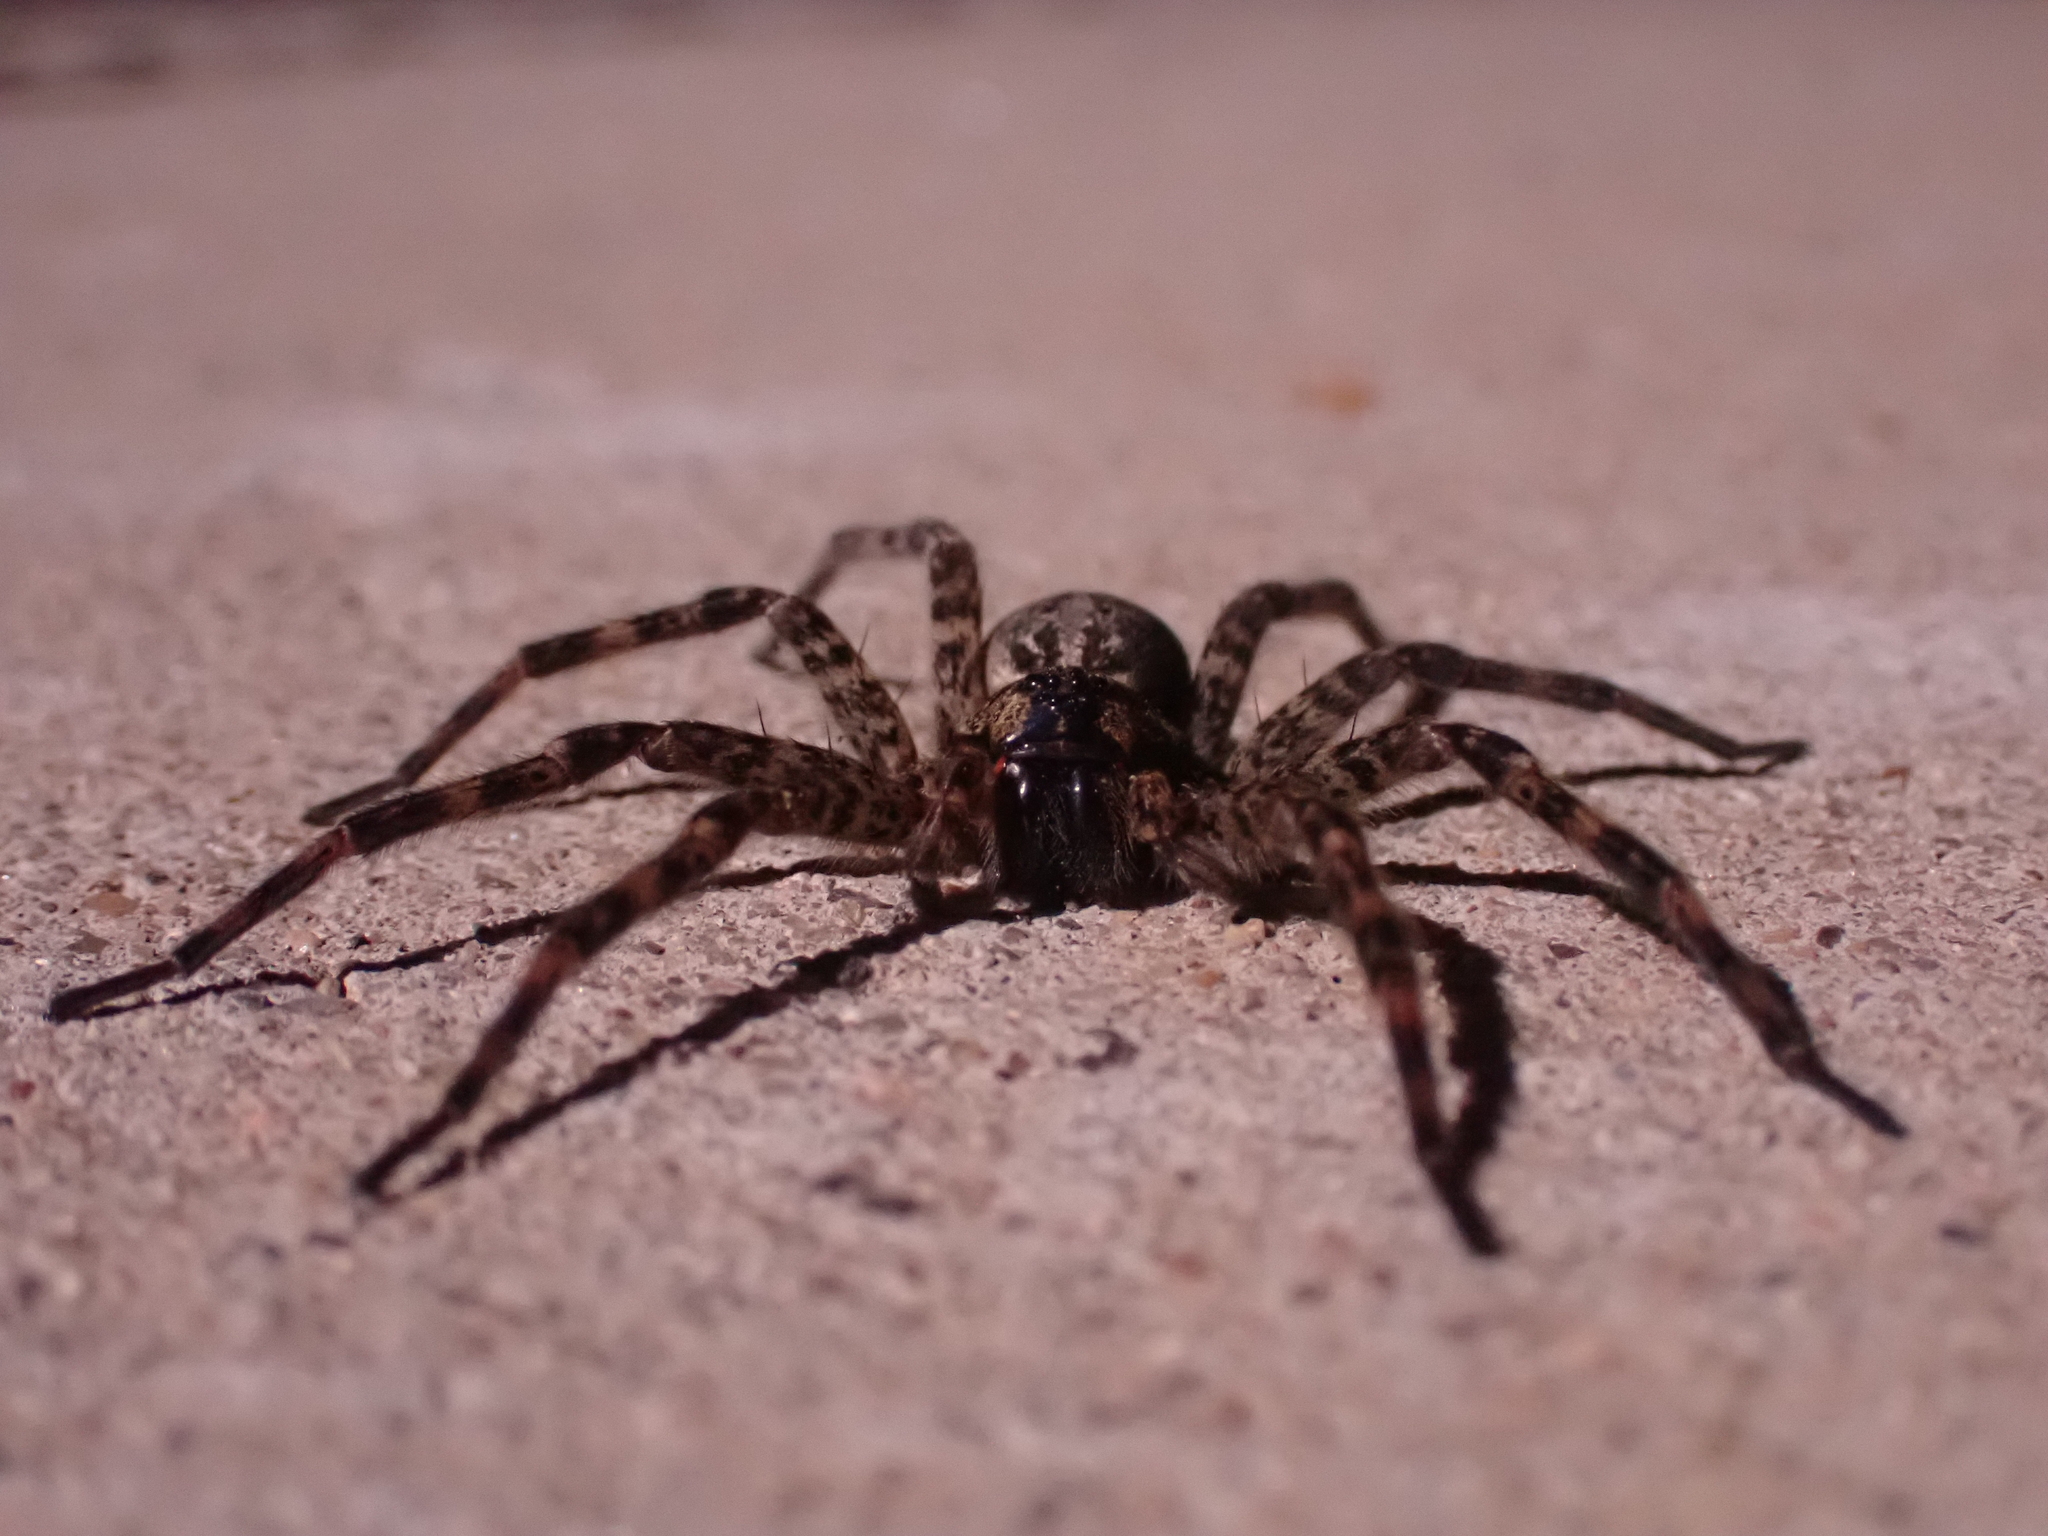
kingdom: Animalia
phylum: Arthropoda
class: Arachnida
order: Araneae
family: Pisauridae
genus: Dolomedes
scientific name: Dolomedes tenebrosus
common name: Dark fishing spider
